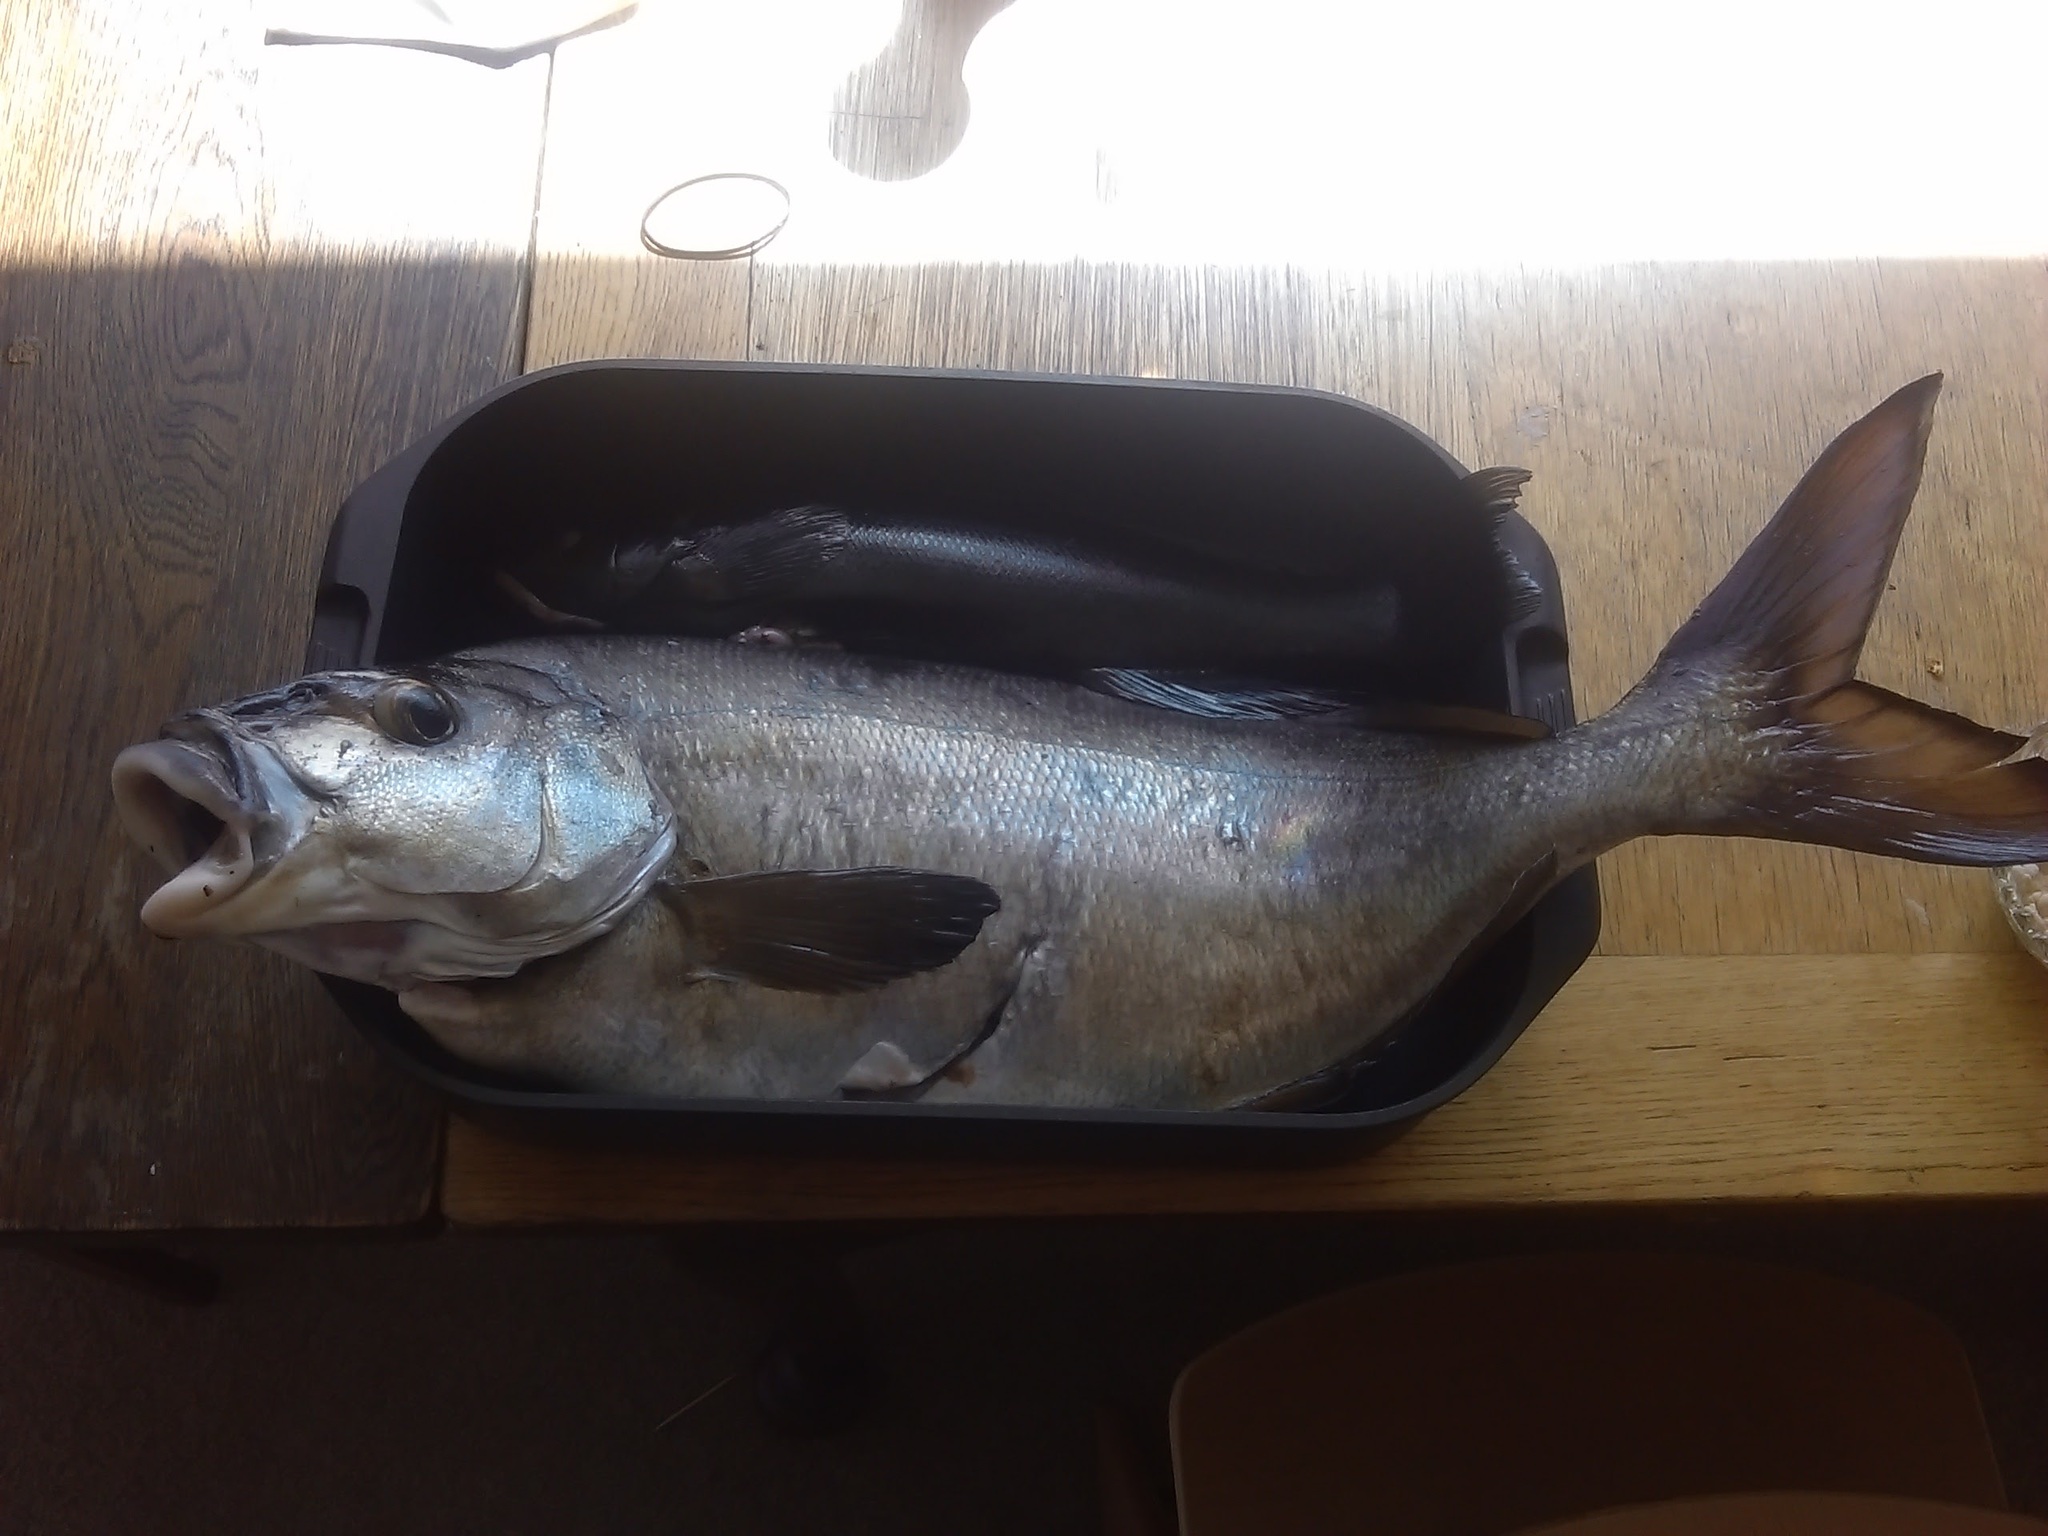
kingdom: Animalia
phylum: Chordata
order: Perciformes
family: Odacidae
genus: Odax
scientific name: Odax pullus
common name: Butterfish
